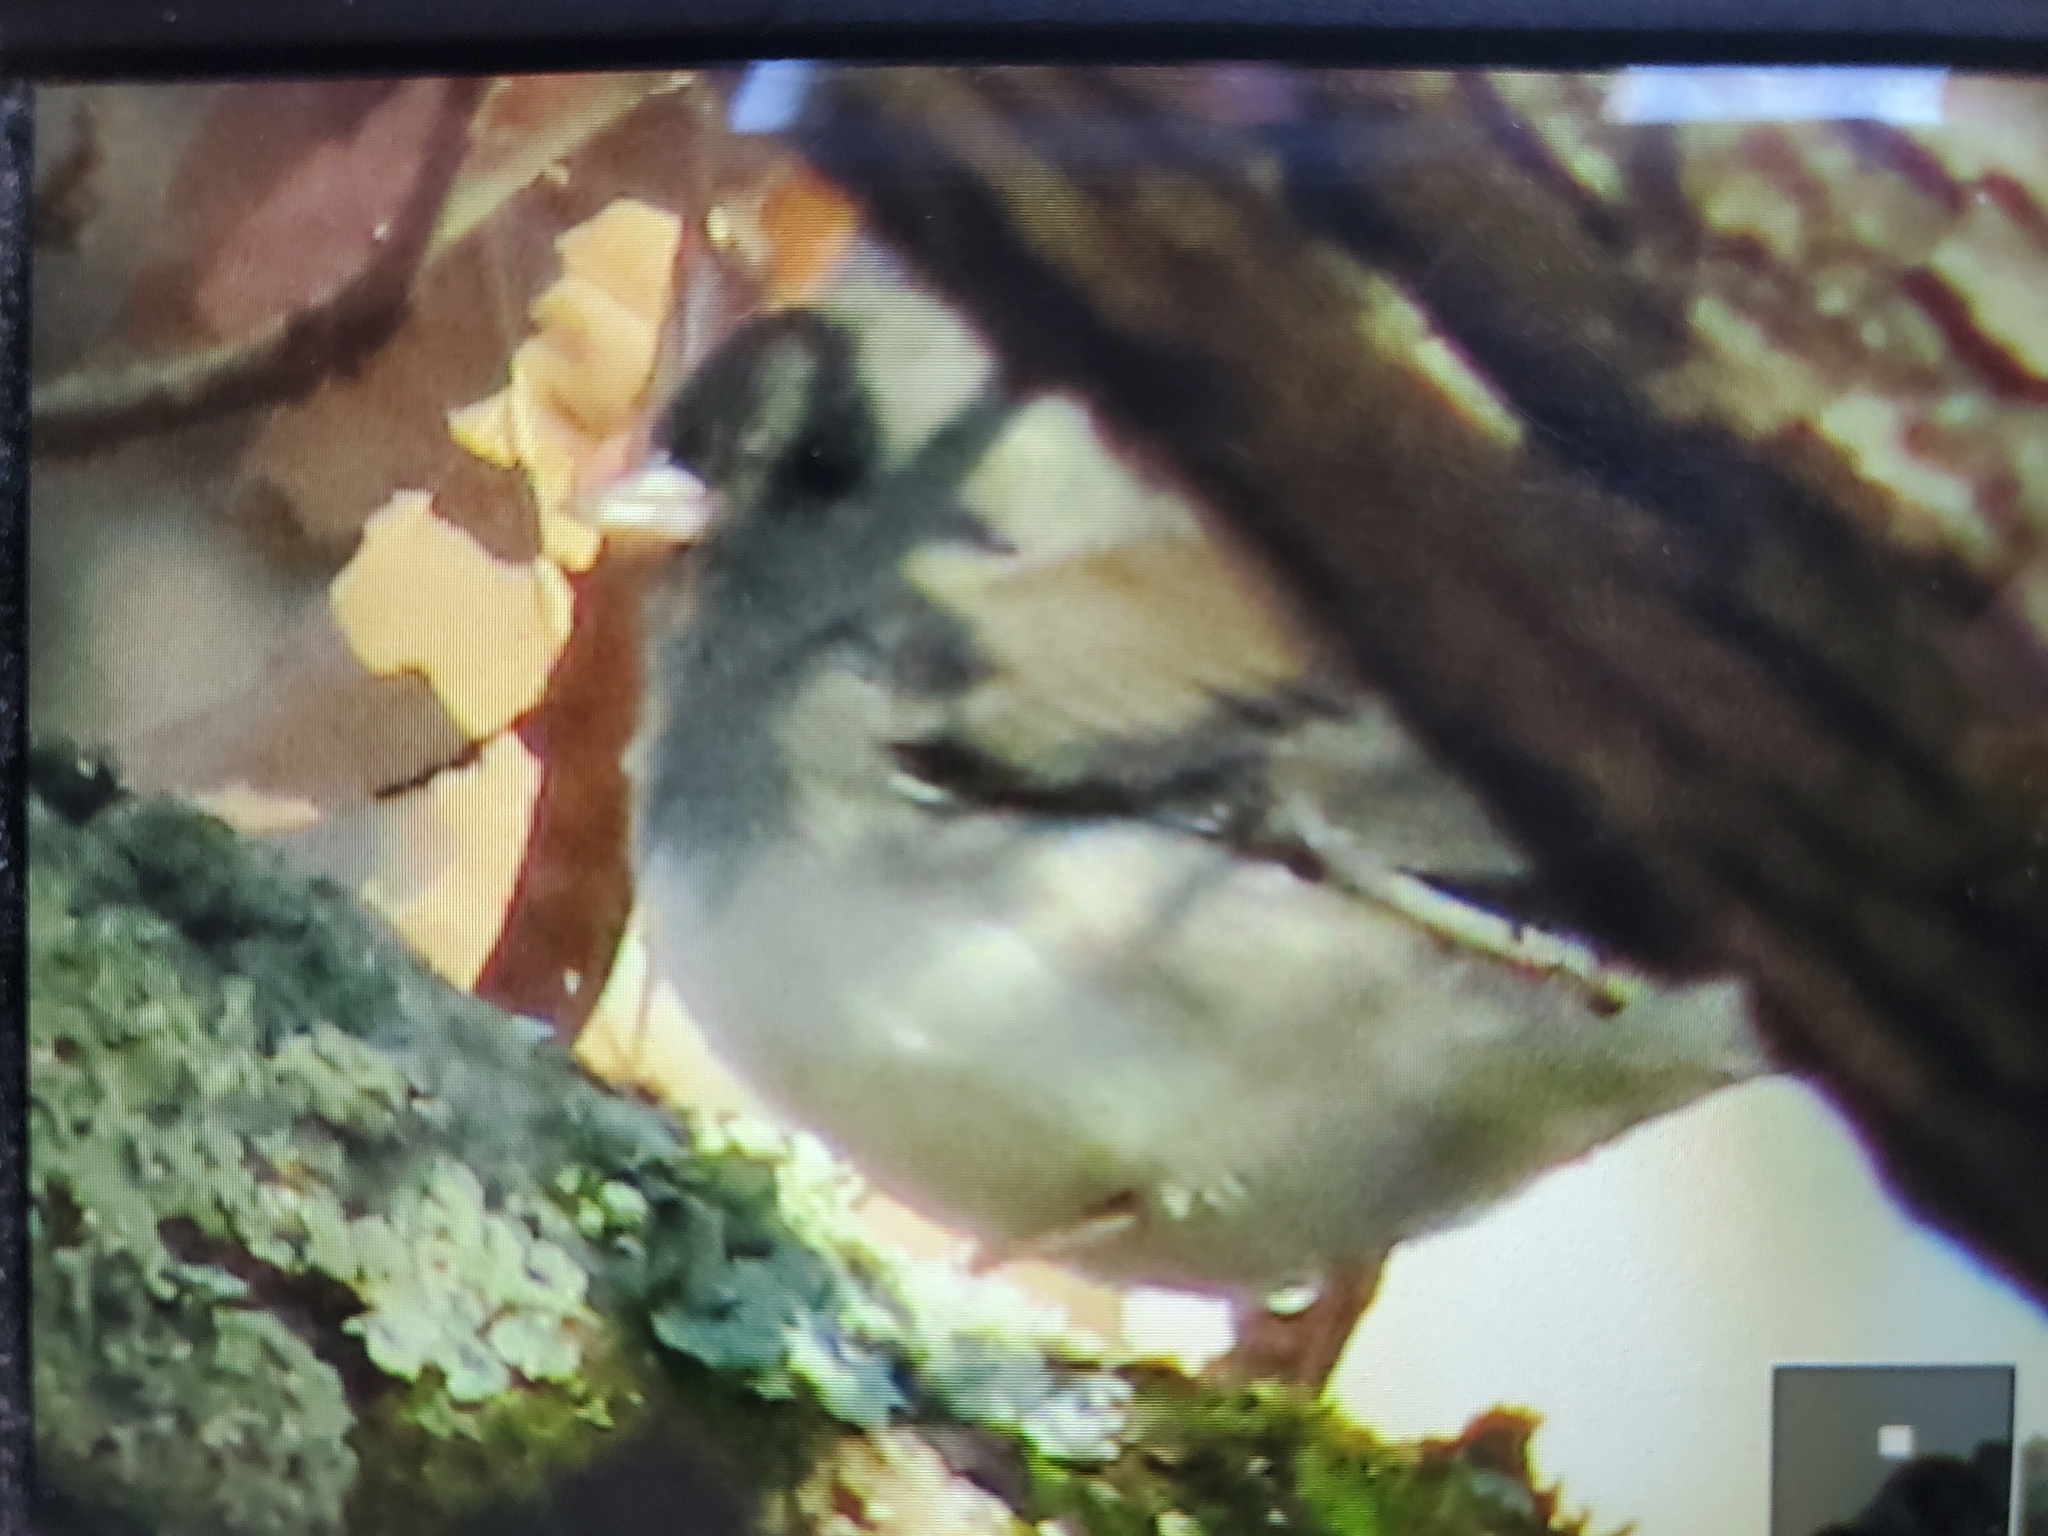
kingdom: Animalia
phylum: Chordata
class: Aves
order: Passeriformes
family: Passerellidae
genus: Junco
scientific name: Junco hyemalis
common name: Dark-eyed junco
